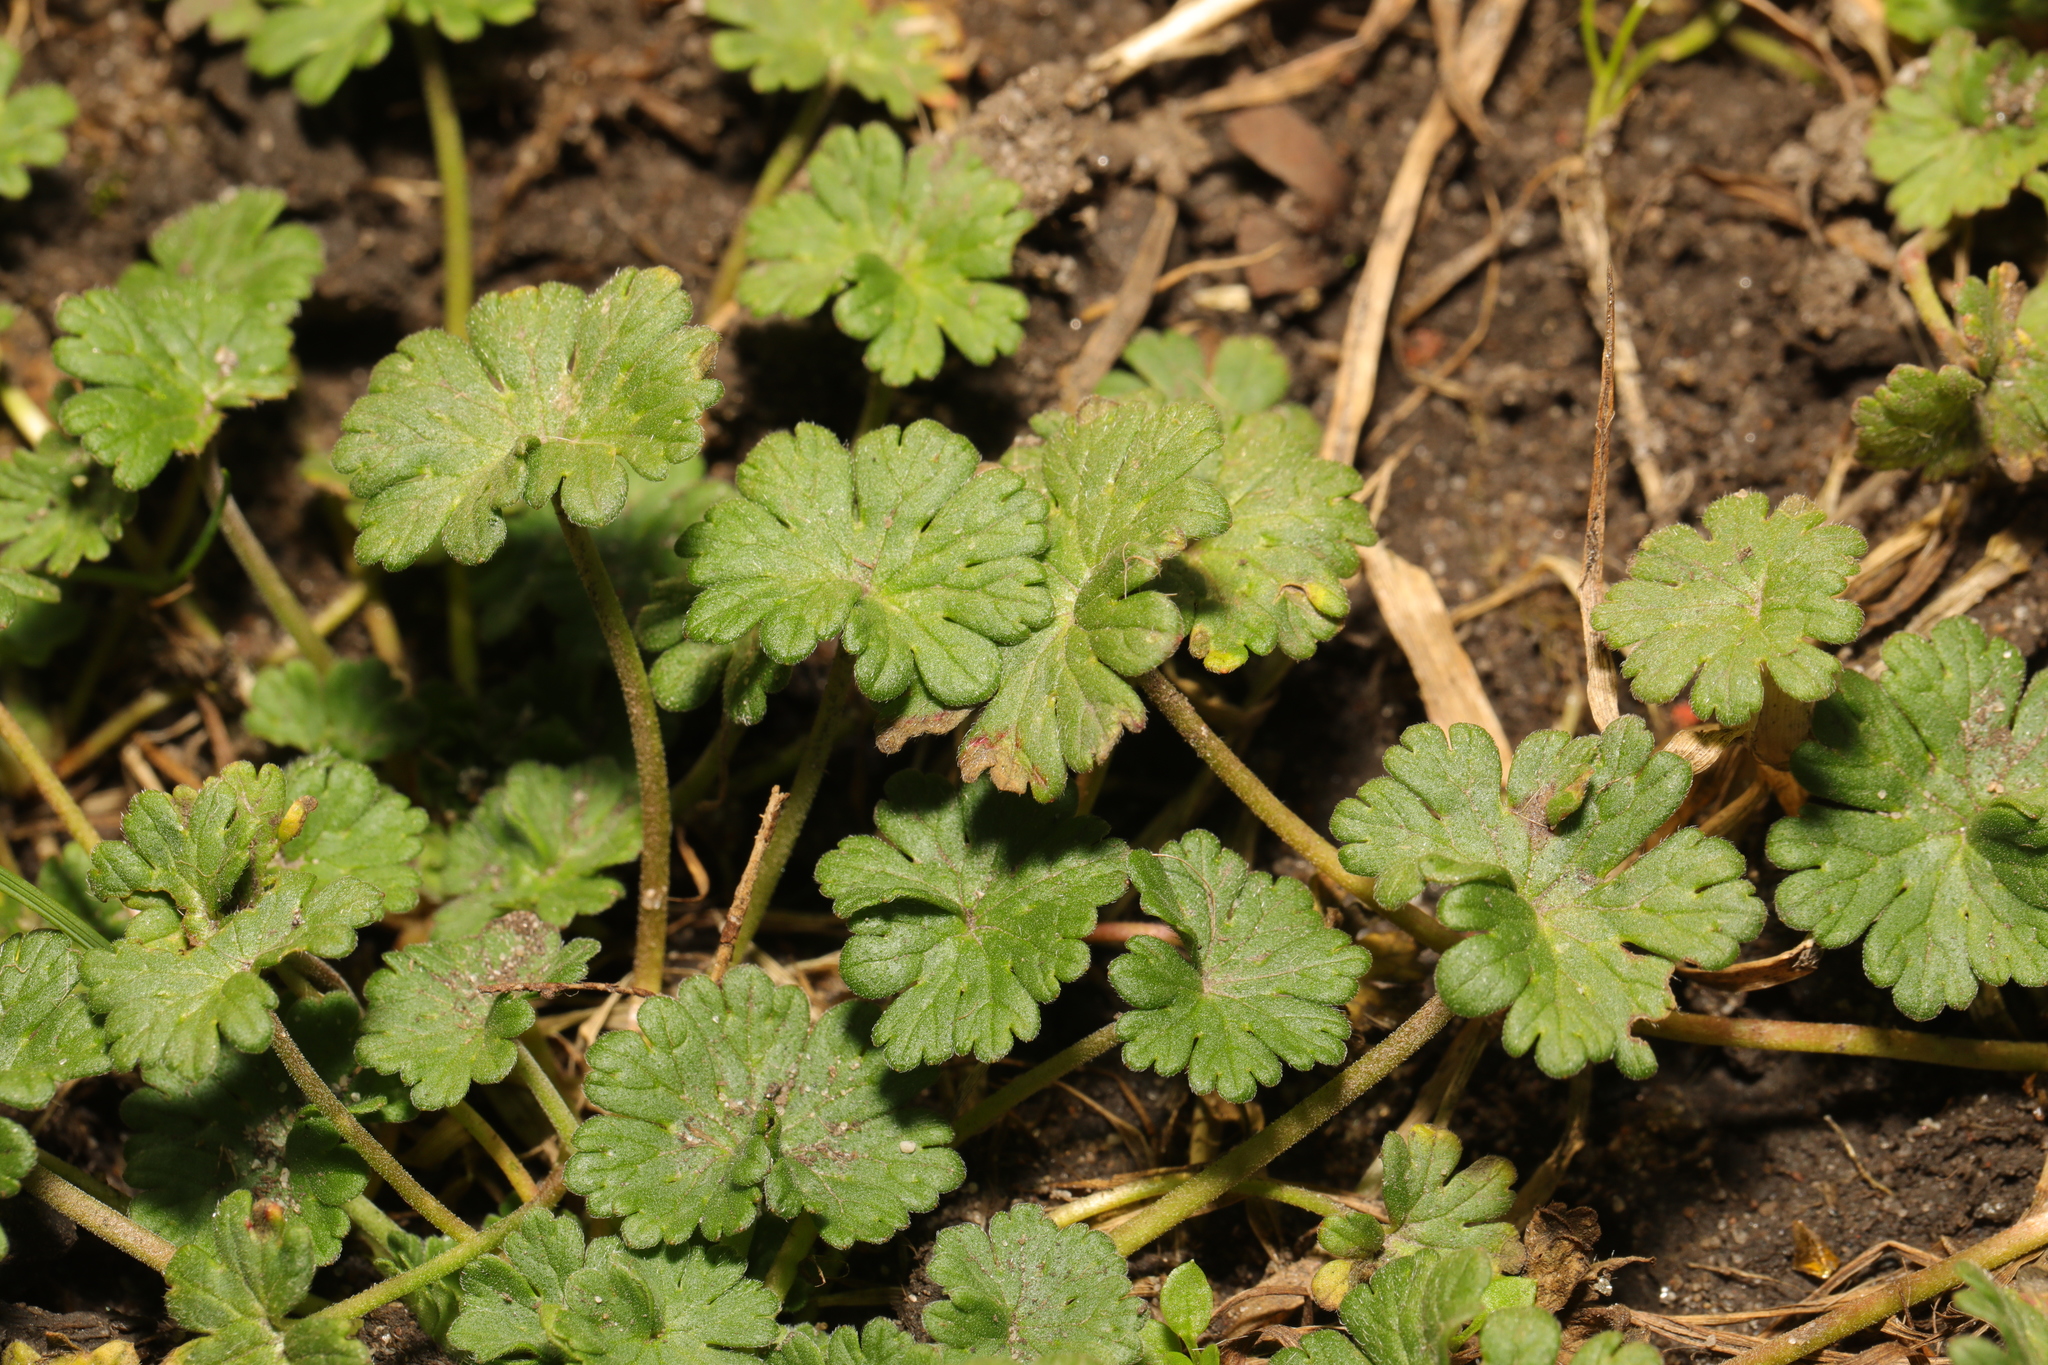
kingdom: Plantae
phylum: Tracheophyta
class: Magnoliopsida
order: Geraniales
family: Geraniaceae
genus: Geranium
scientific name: Geranium molle
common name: Dove's-foot crane's-bill
